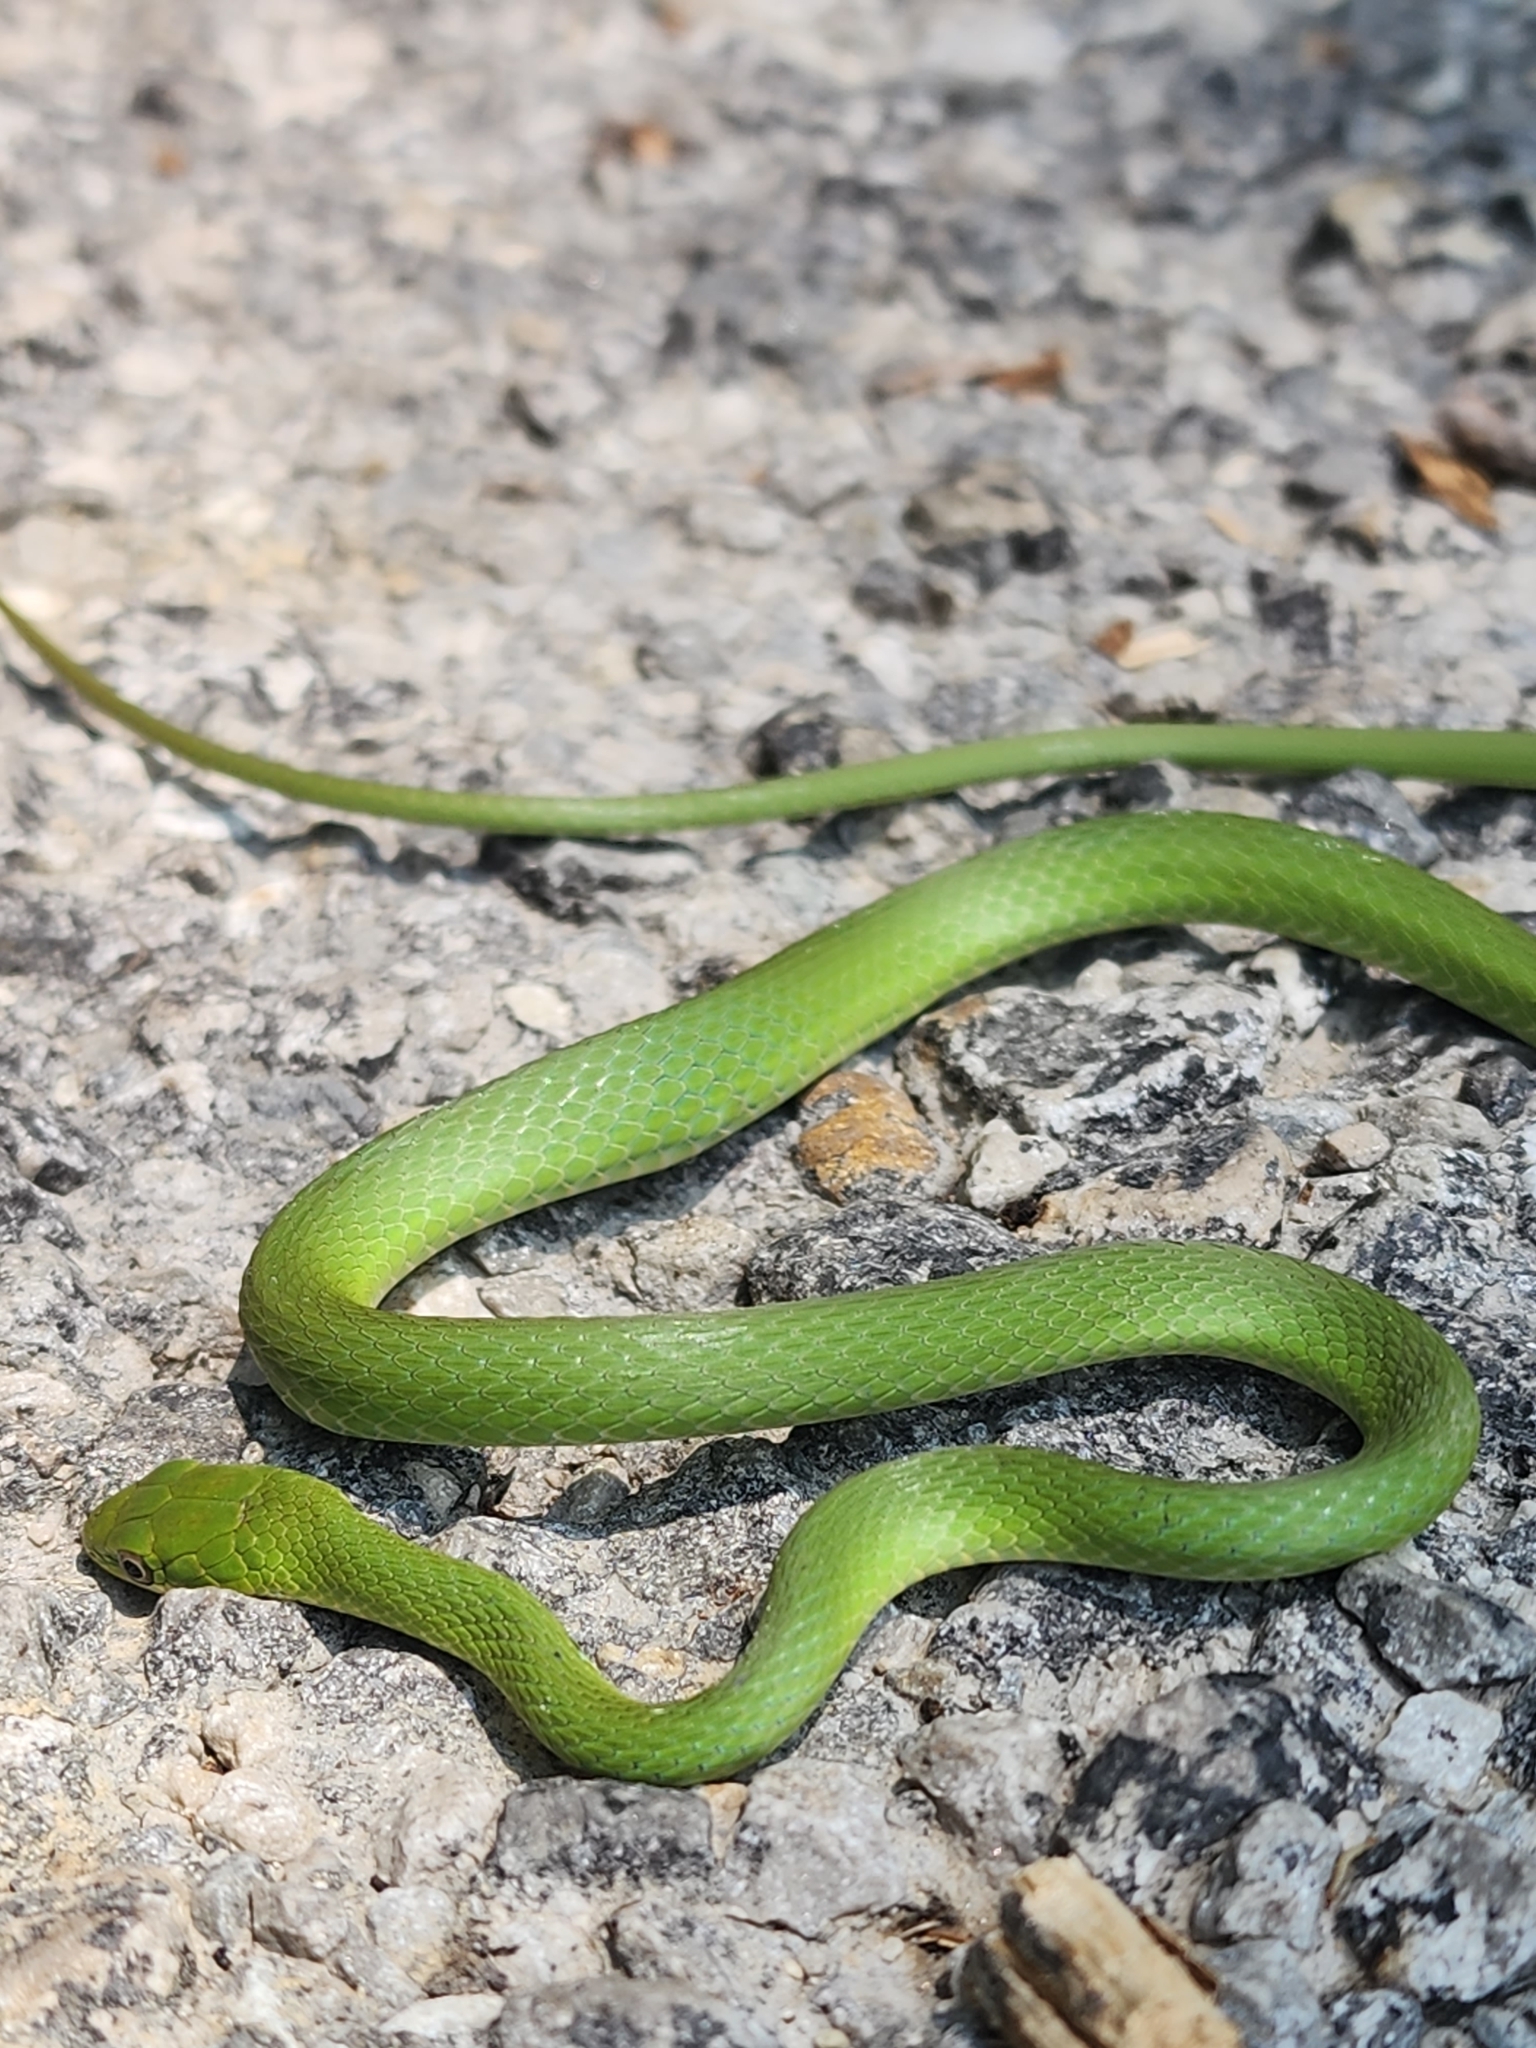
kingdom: Animalia
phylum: Chordata
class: Squamata
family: Colubridae
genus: Opheodrys
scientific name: Opheodrys aestivus
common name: Rough greensnake
